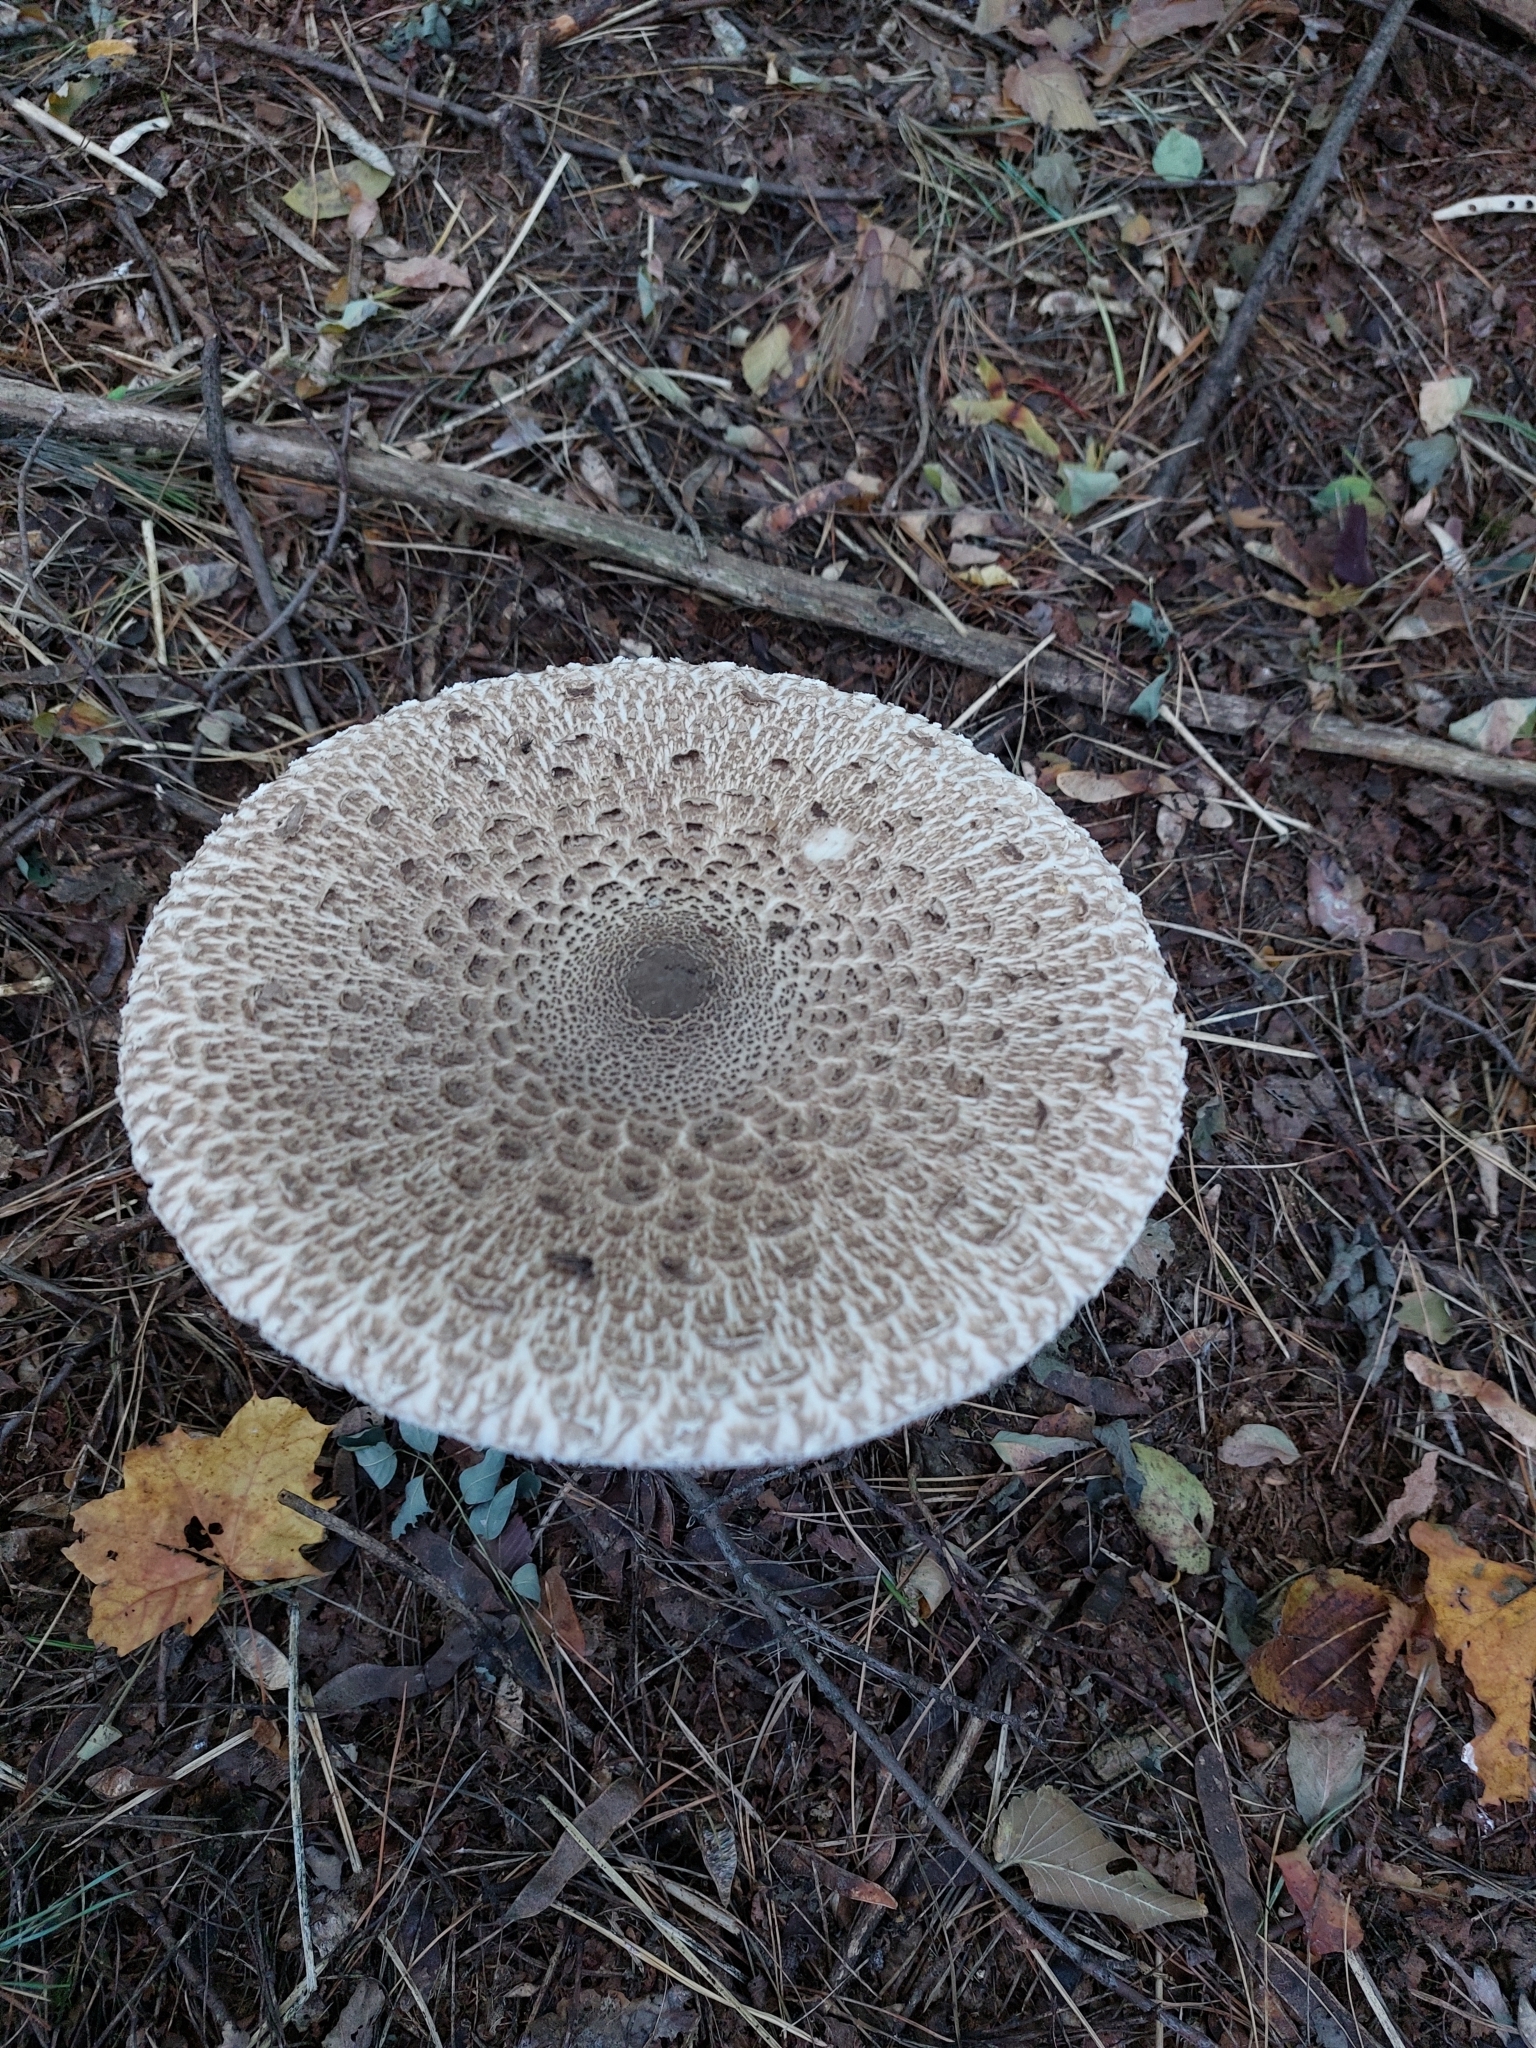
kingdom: Fungi
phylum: Basidiomycota
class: Agaricomycetes
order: Agaricales
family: Agaricaceae
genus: Macrolepiota
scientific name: Macrolepiota procera
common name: Parasol
